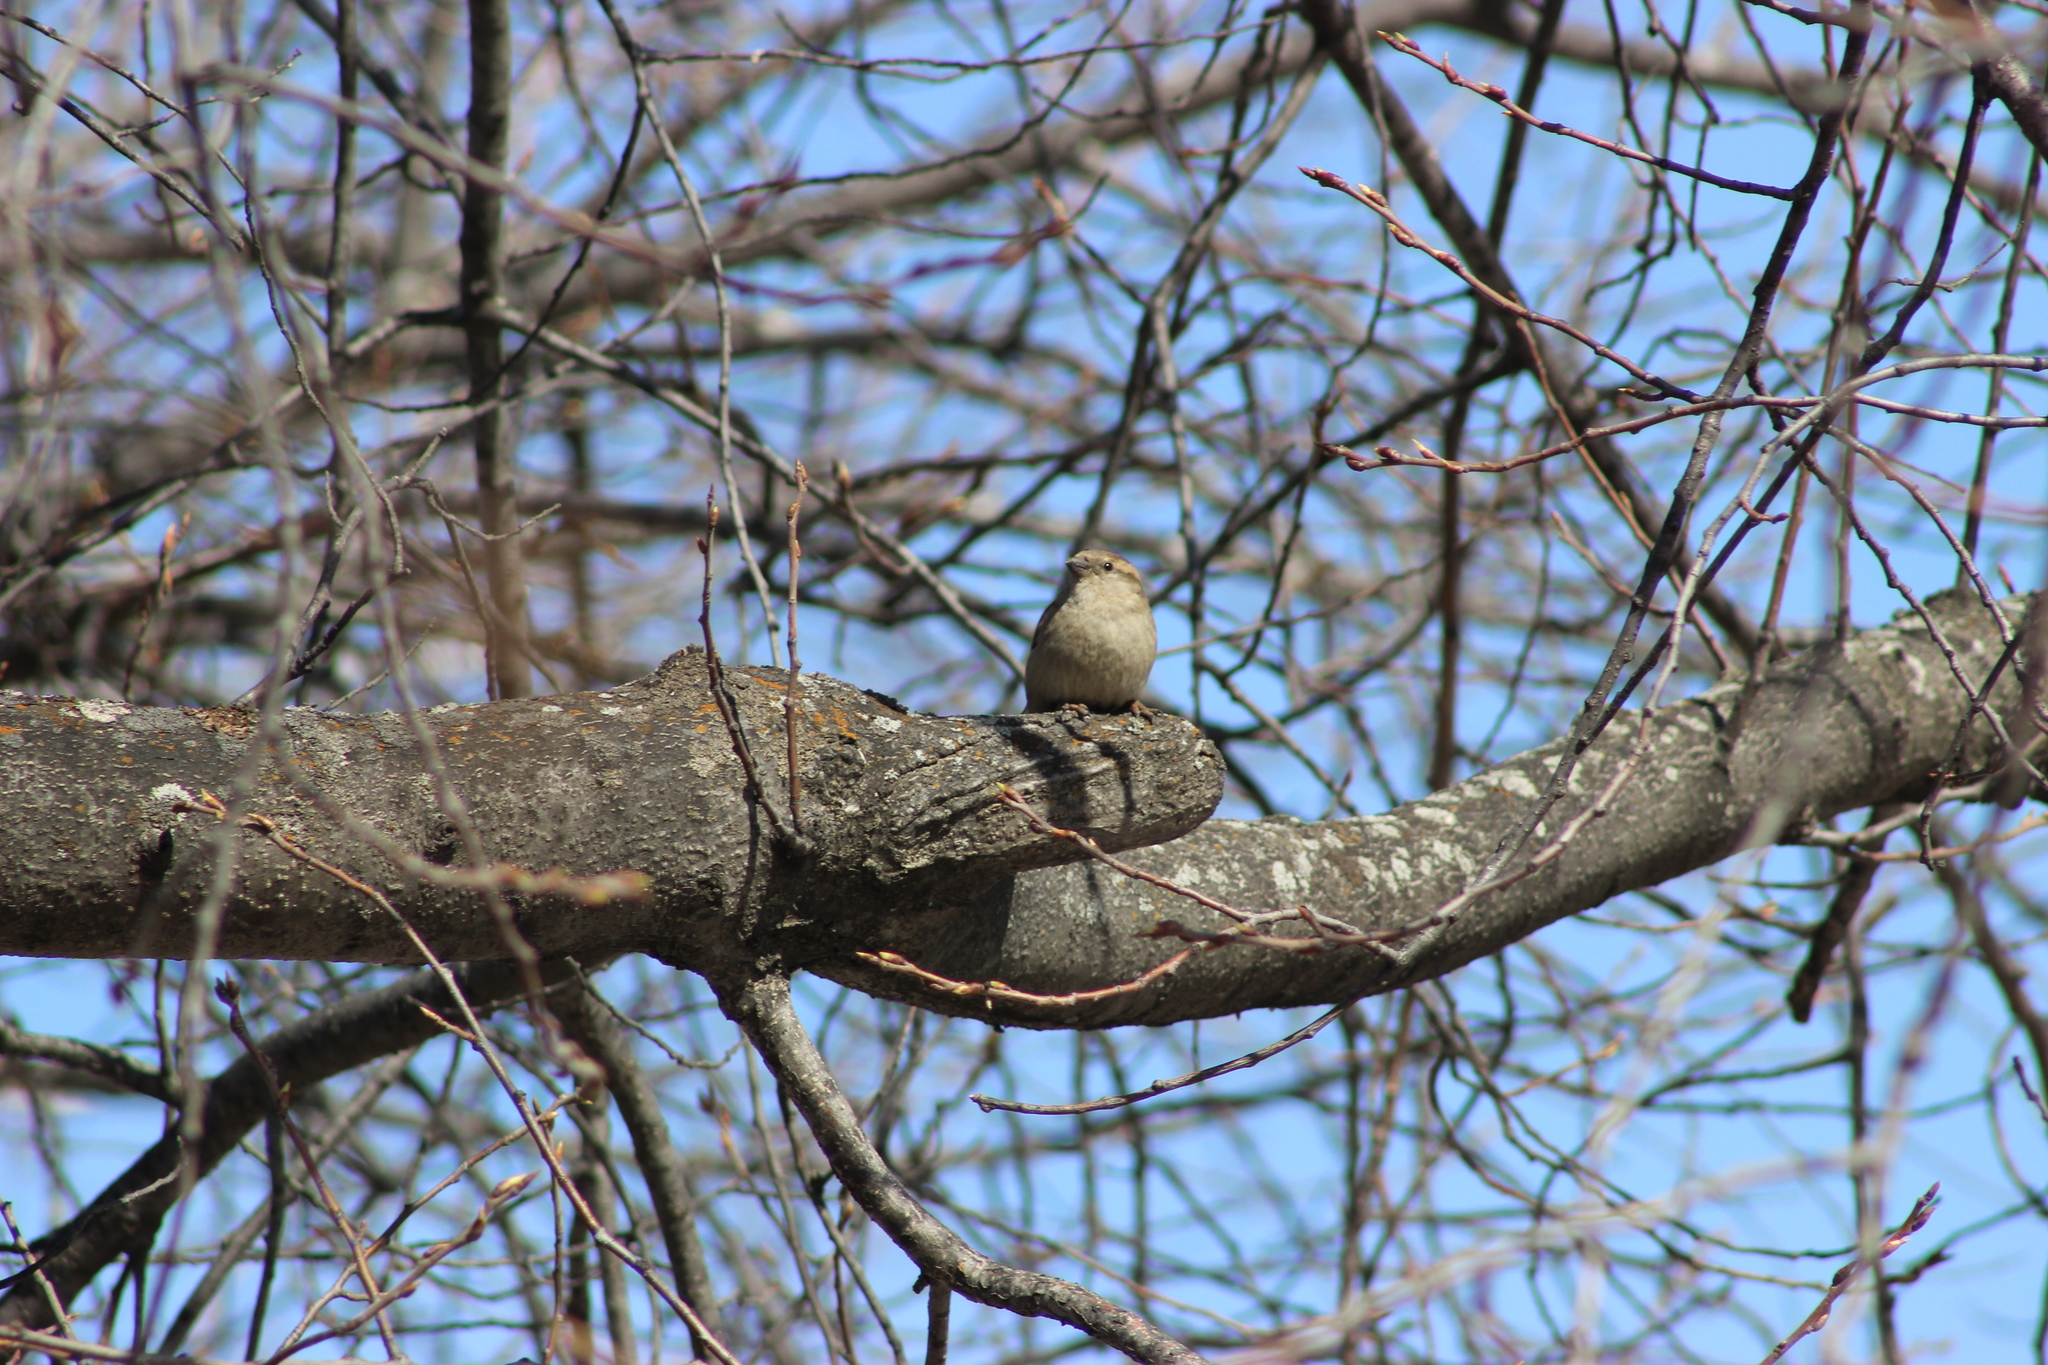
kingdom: Animalia
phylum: Chordata
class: Aves
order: Passeriformes
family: Passeridae
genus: Passer
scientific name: Passer domesticus
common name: House sparrow
